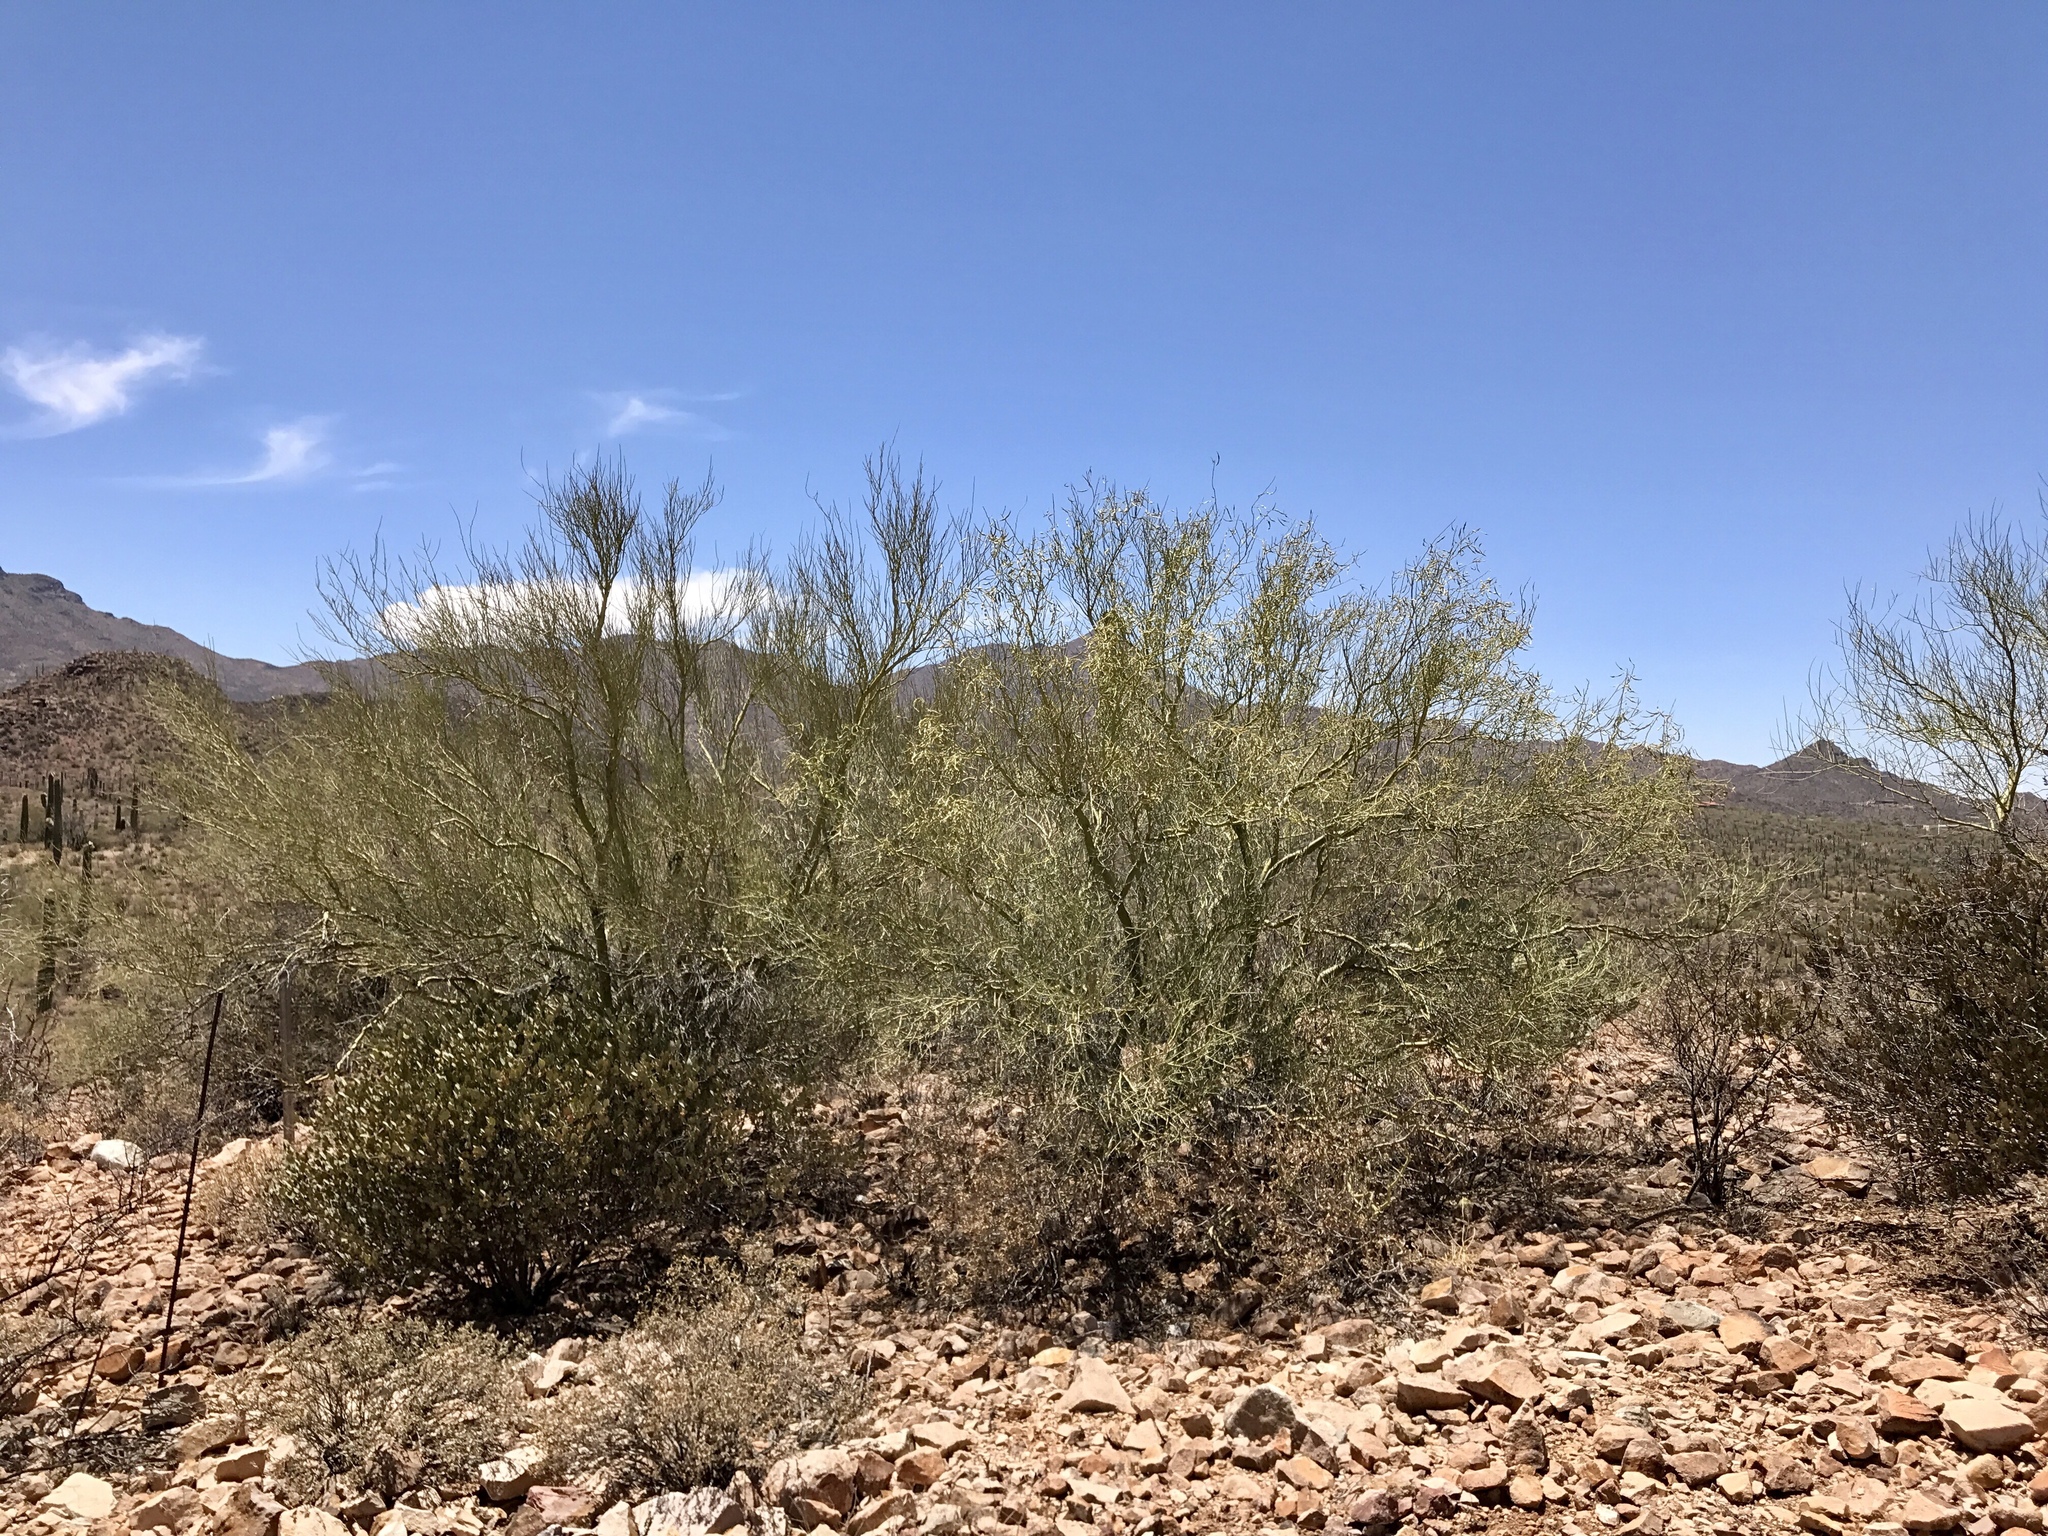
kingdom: Plantae
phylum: Tracheophyta
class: Magnoliopsida
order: Fabales
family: Fabaceae
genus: Parkinsonia
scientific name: Parkinsonia microphylla
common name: Yellow paloverde
